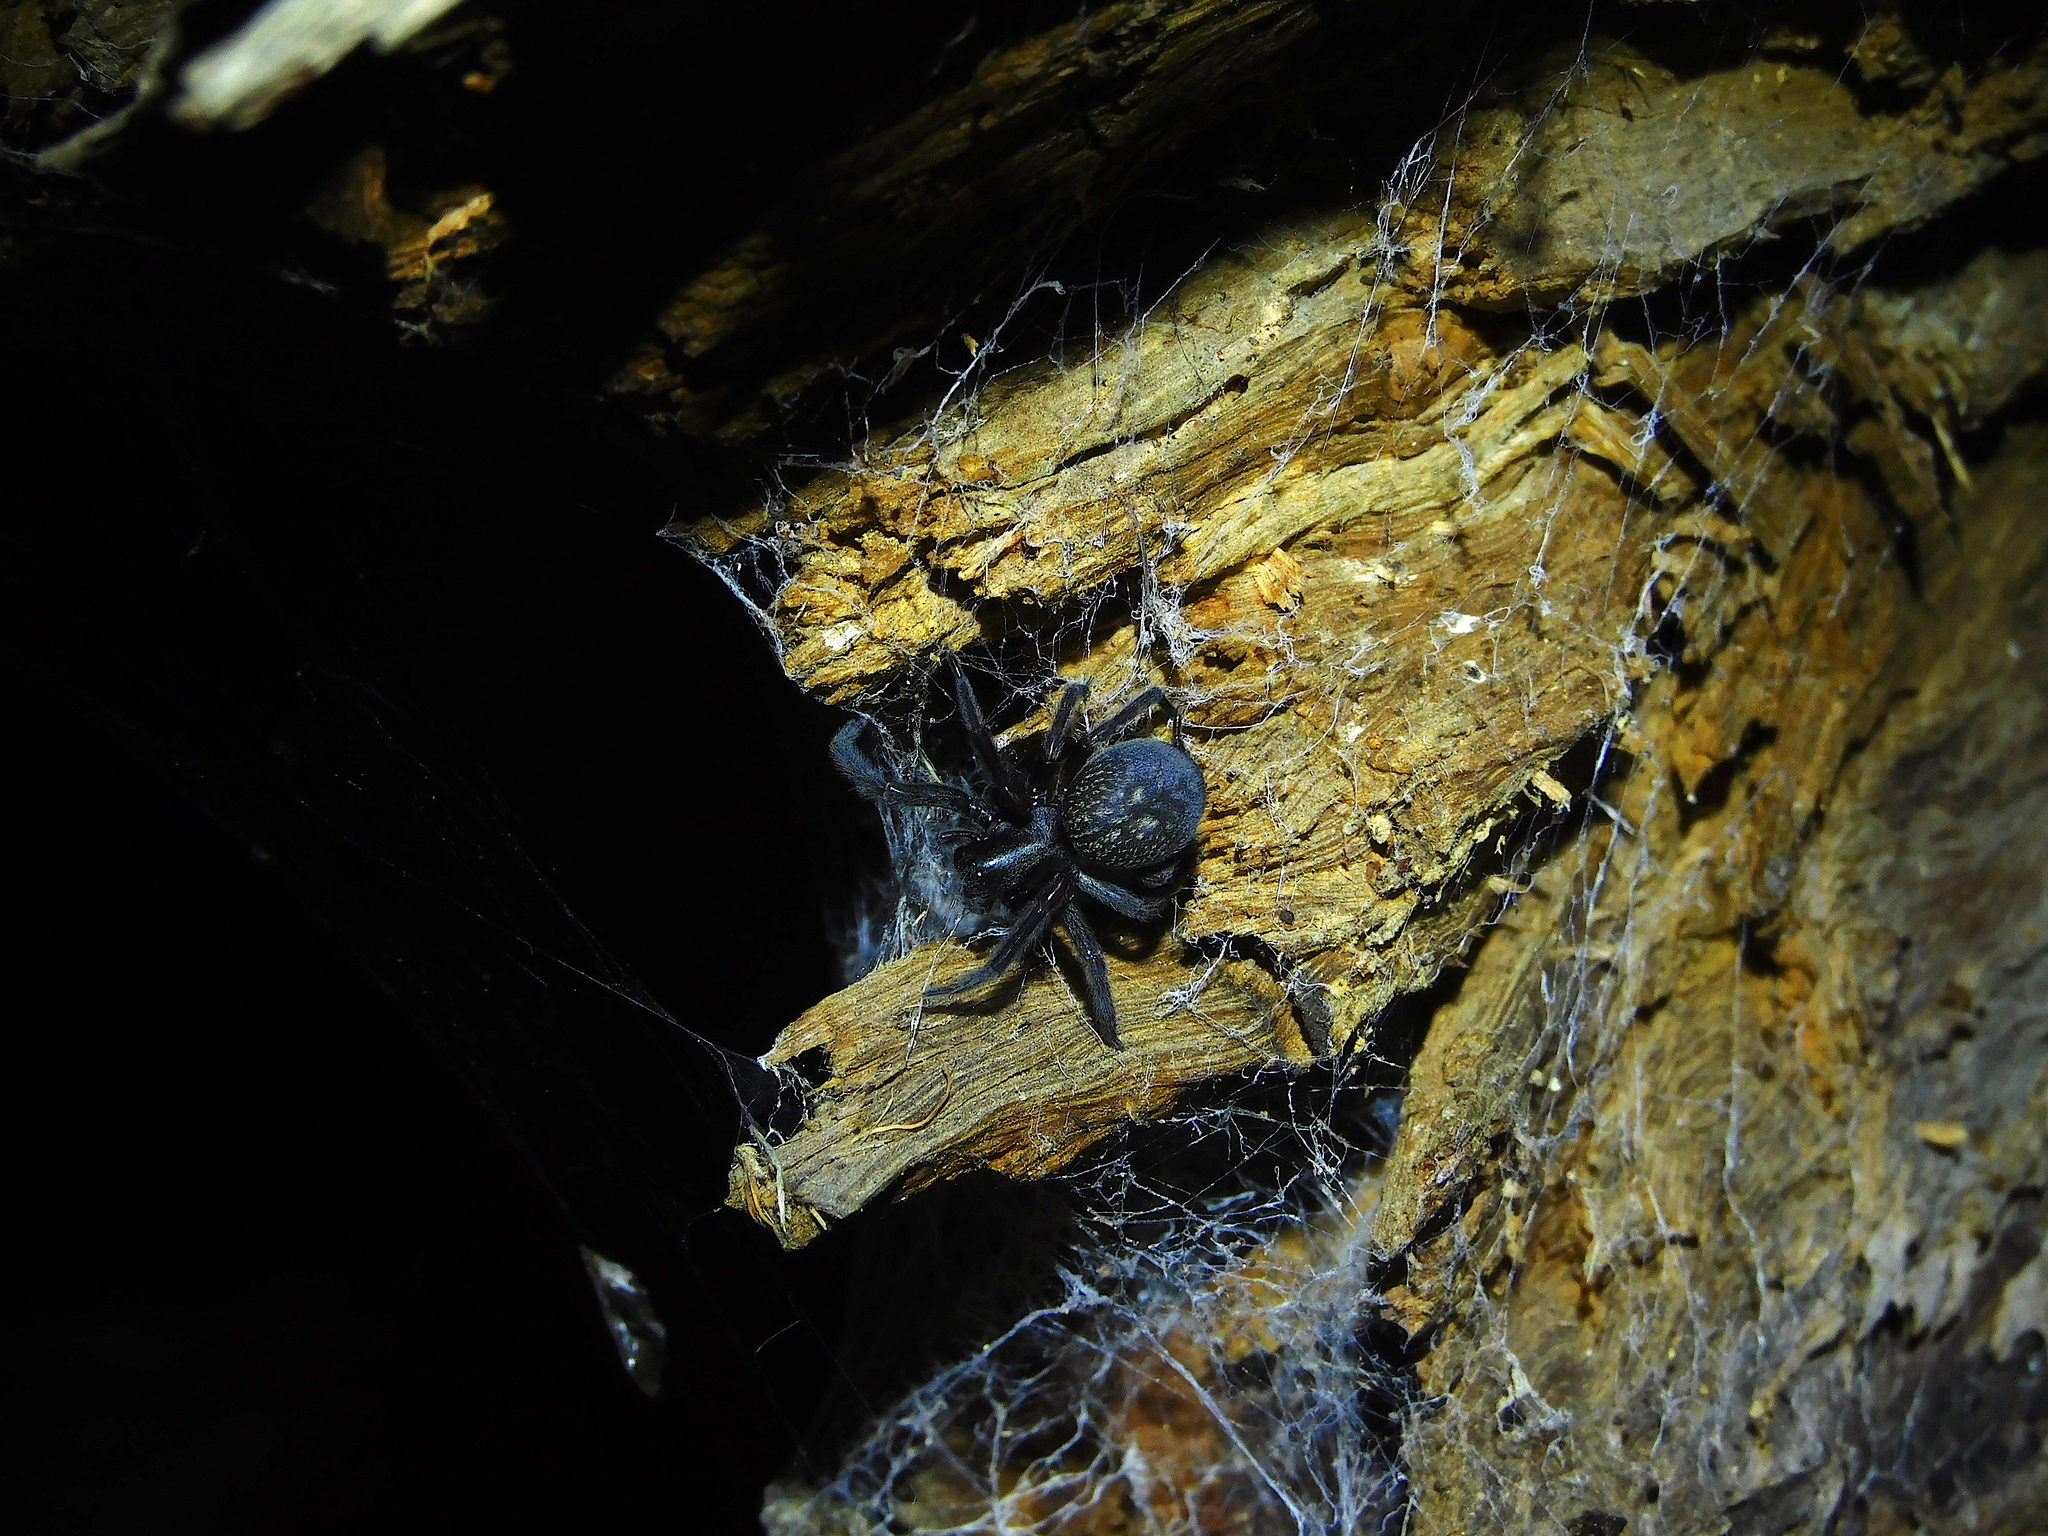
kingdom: Animalia
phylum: Arthropoda
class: Arachnida
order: Araneae
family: Desidae
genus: Badumna
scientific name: Badumna insignis
